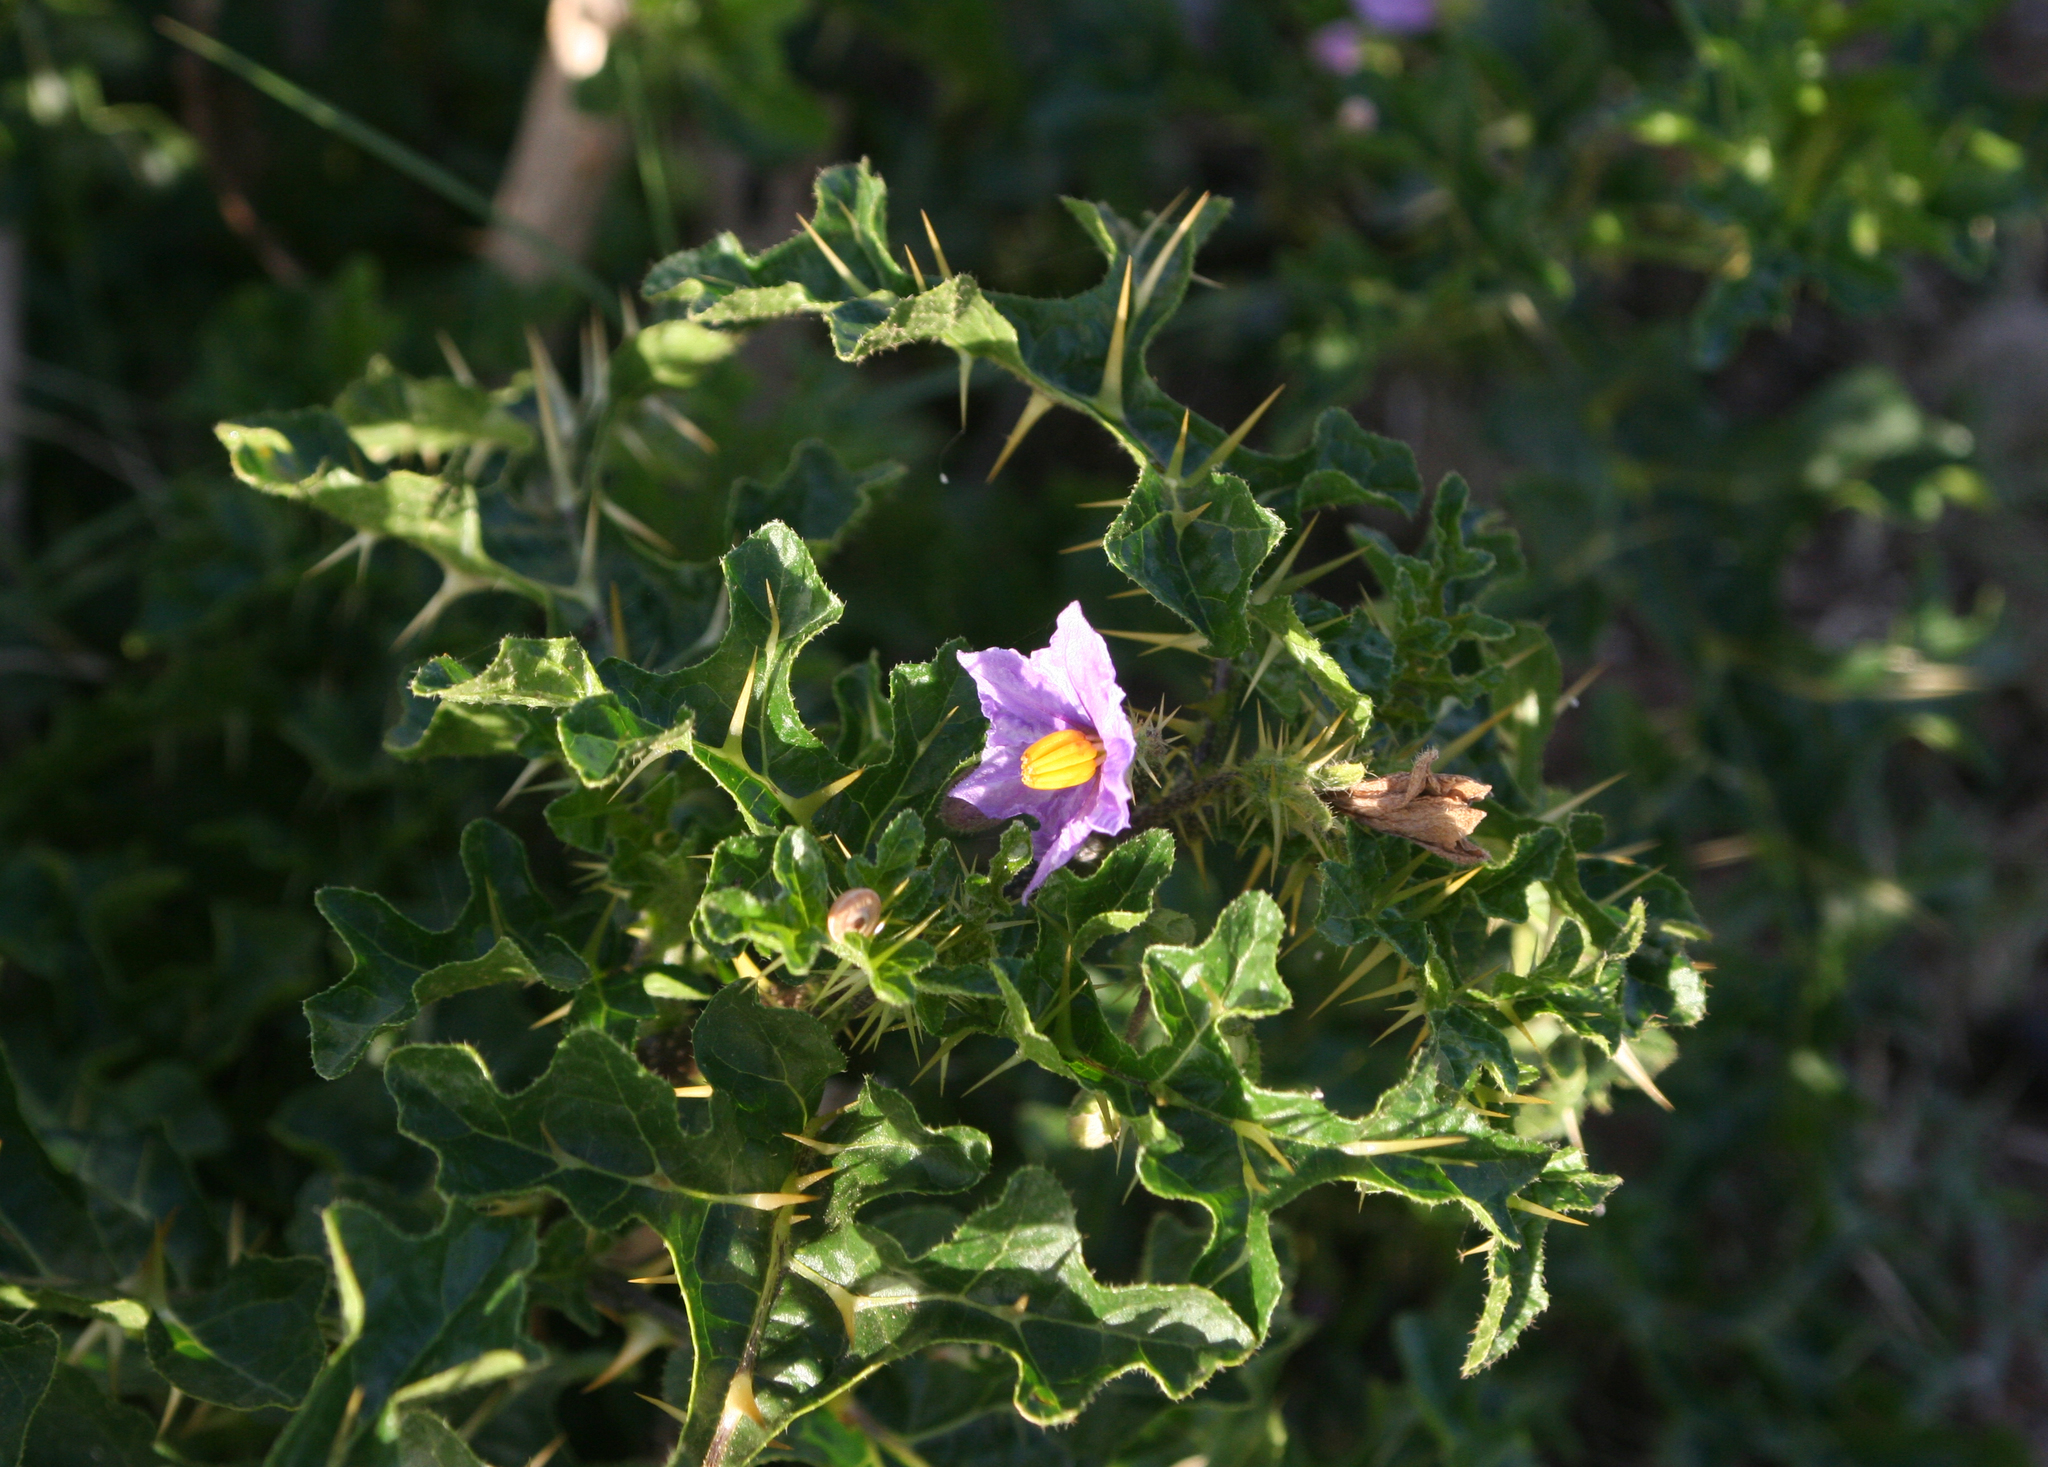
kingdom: Plantae
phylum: Tracheophyta
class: Magnoliopsida
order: Solanales
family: Solanaceae
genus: Solanum
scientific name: Solanum linnaeanum
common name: Nightshade
